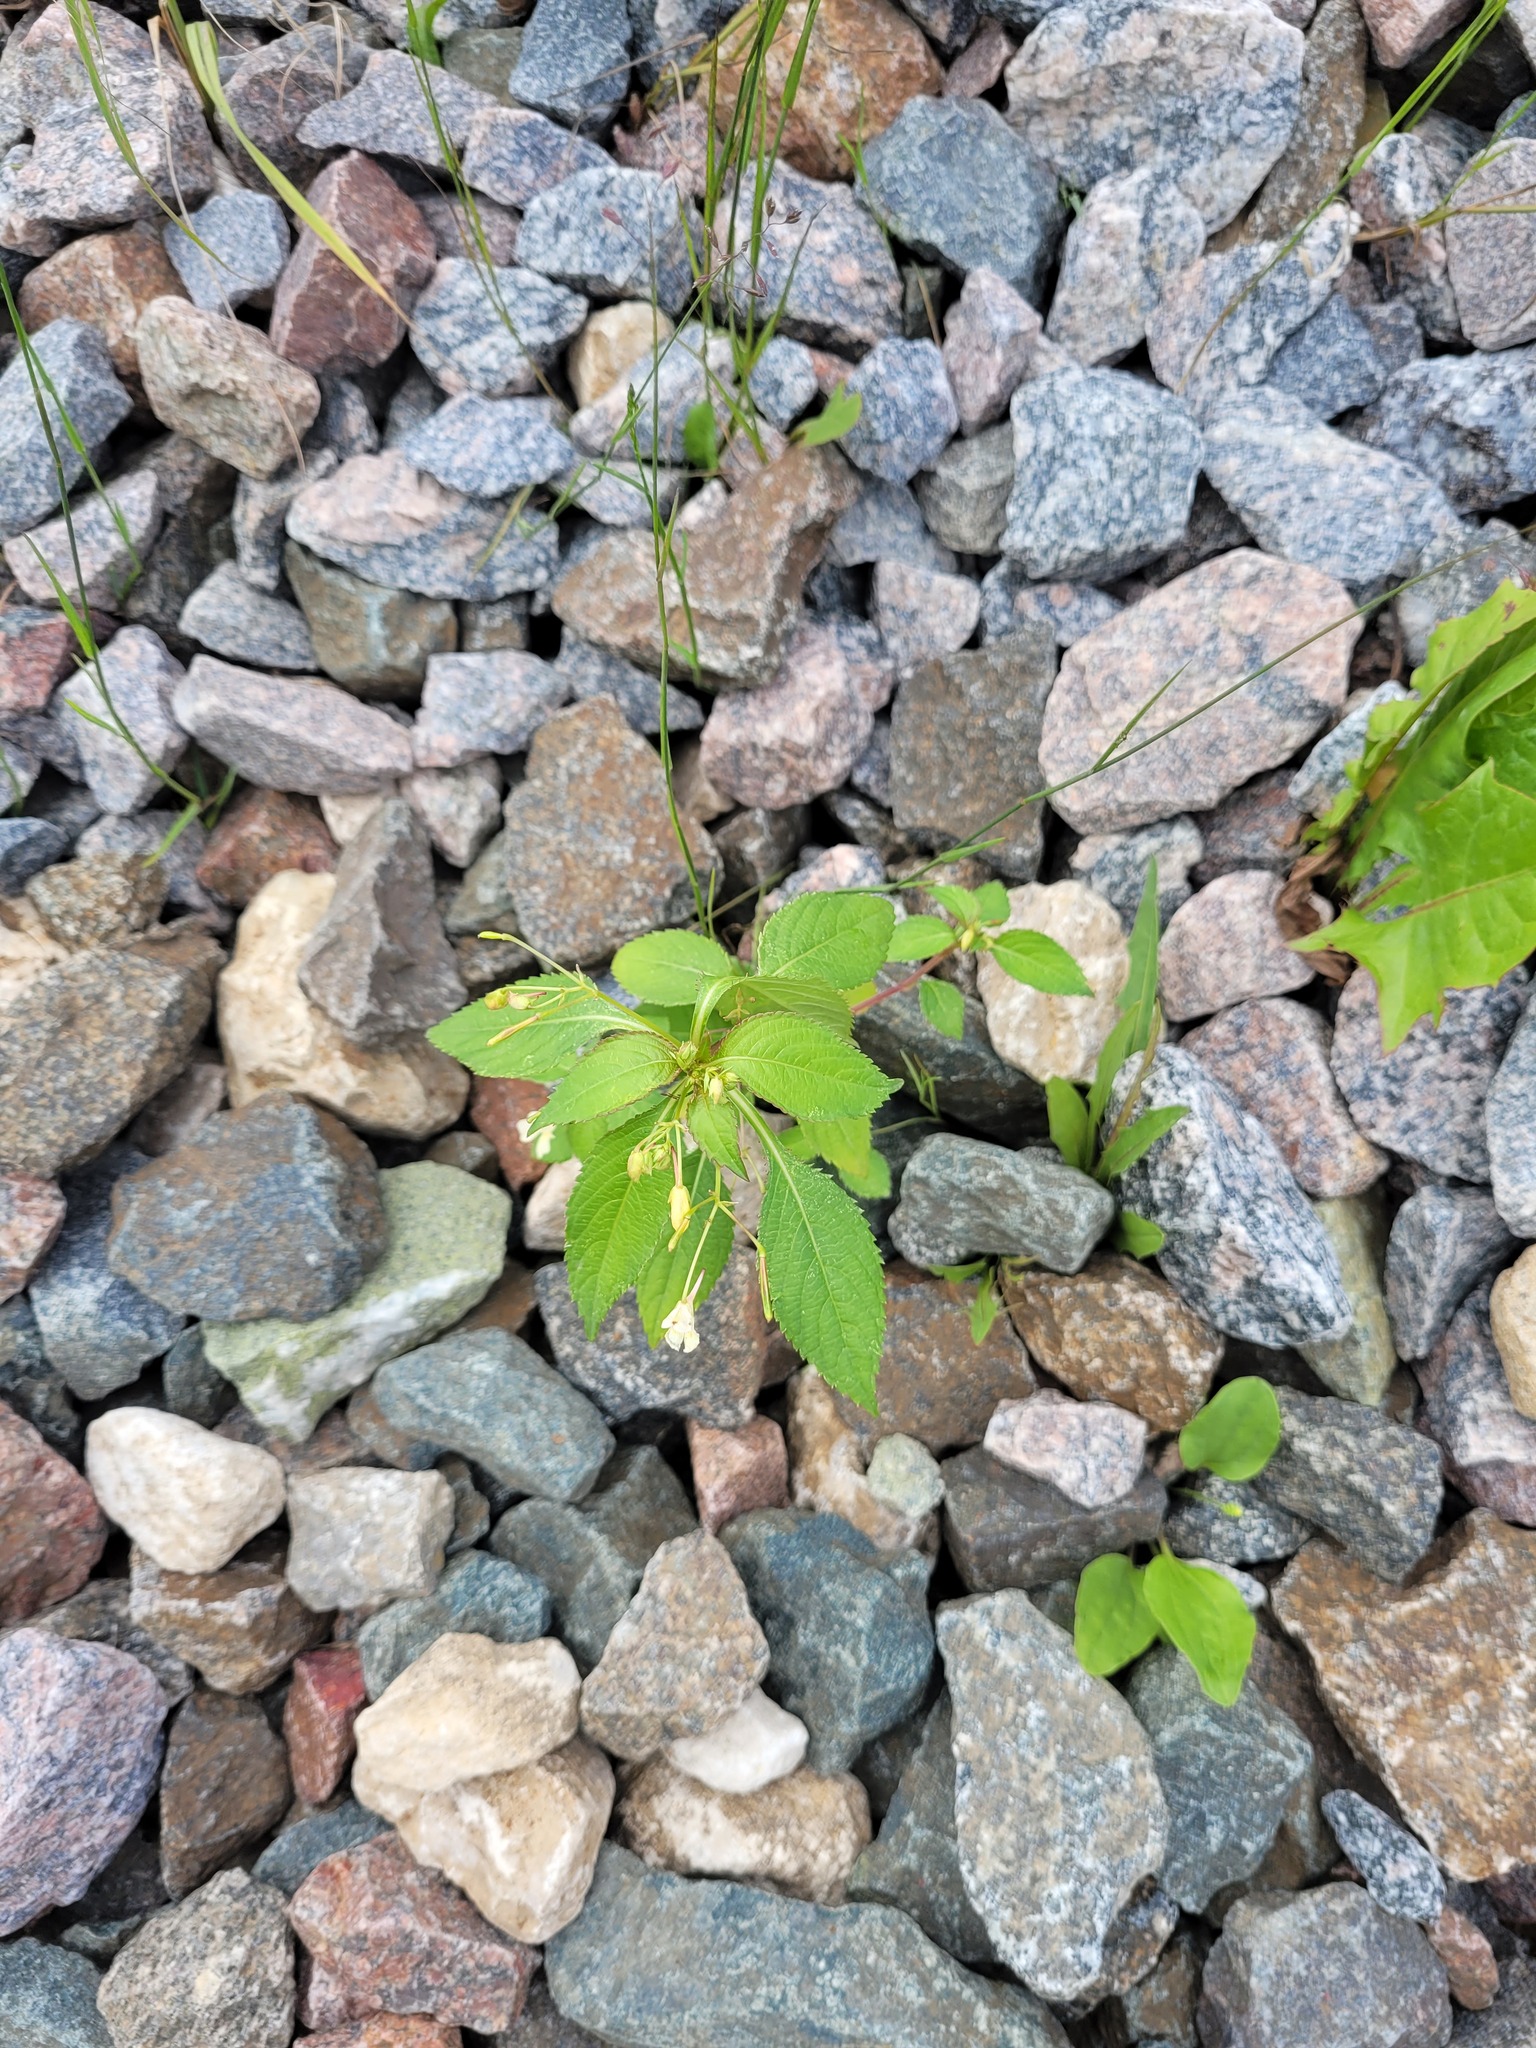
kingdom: Plantae
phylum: Tracheophyta
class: Magnoliopsida
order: Ericales
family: Balsaminaceae
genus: Impatiens
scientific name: Impatiens parviflora
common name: Small balsam
